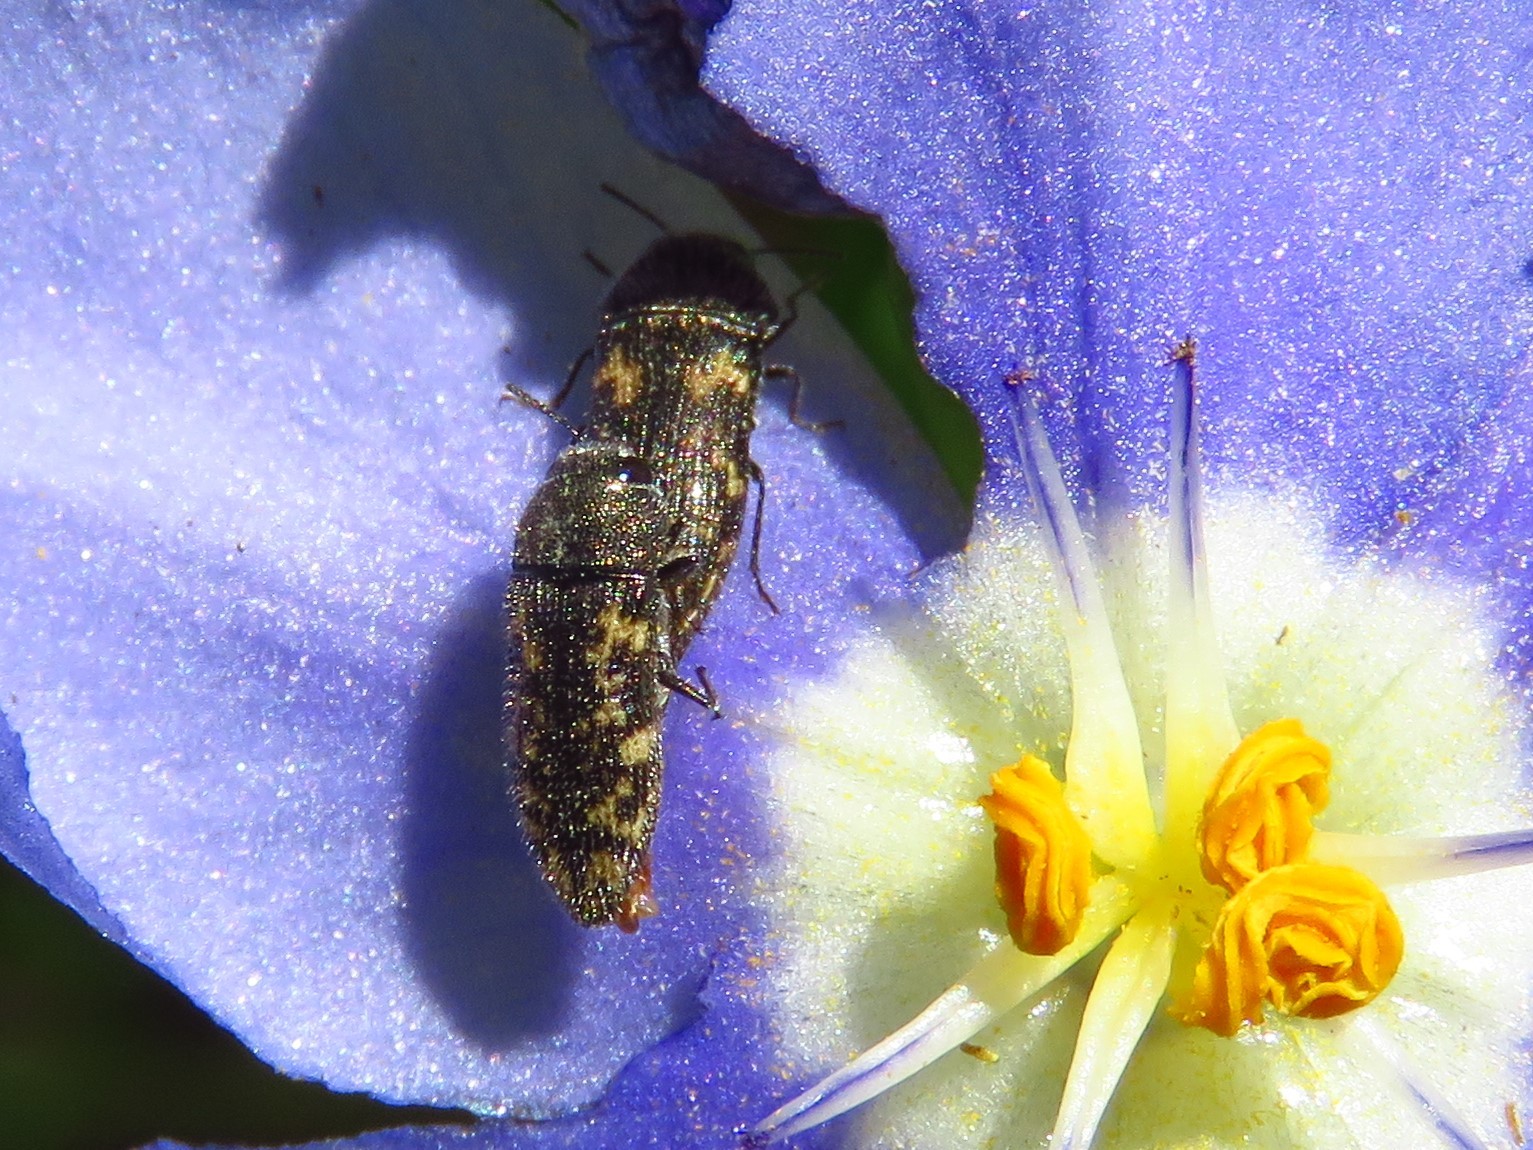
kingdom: Animalia
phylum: Arthropoda
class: Insecta
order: Coleoptera
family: Buprestidae
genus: Acmaeodera
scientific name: Acmaeodera neglecta
